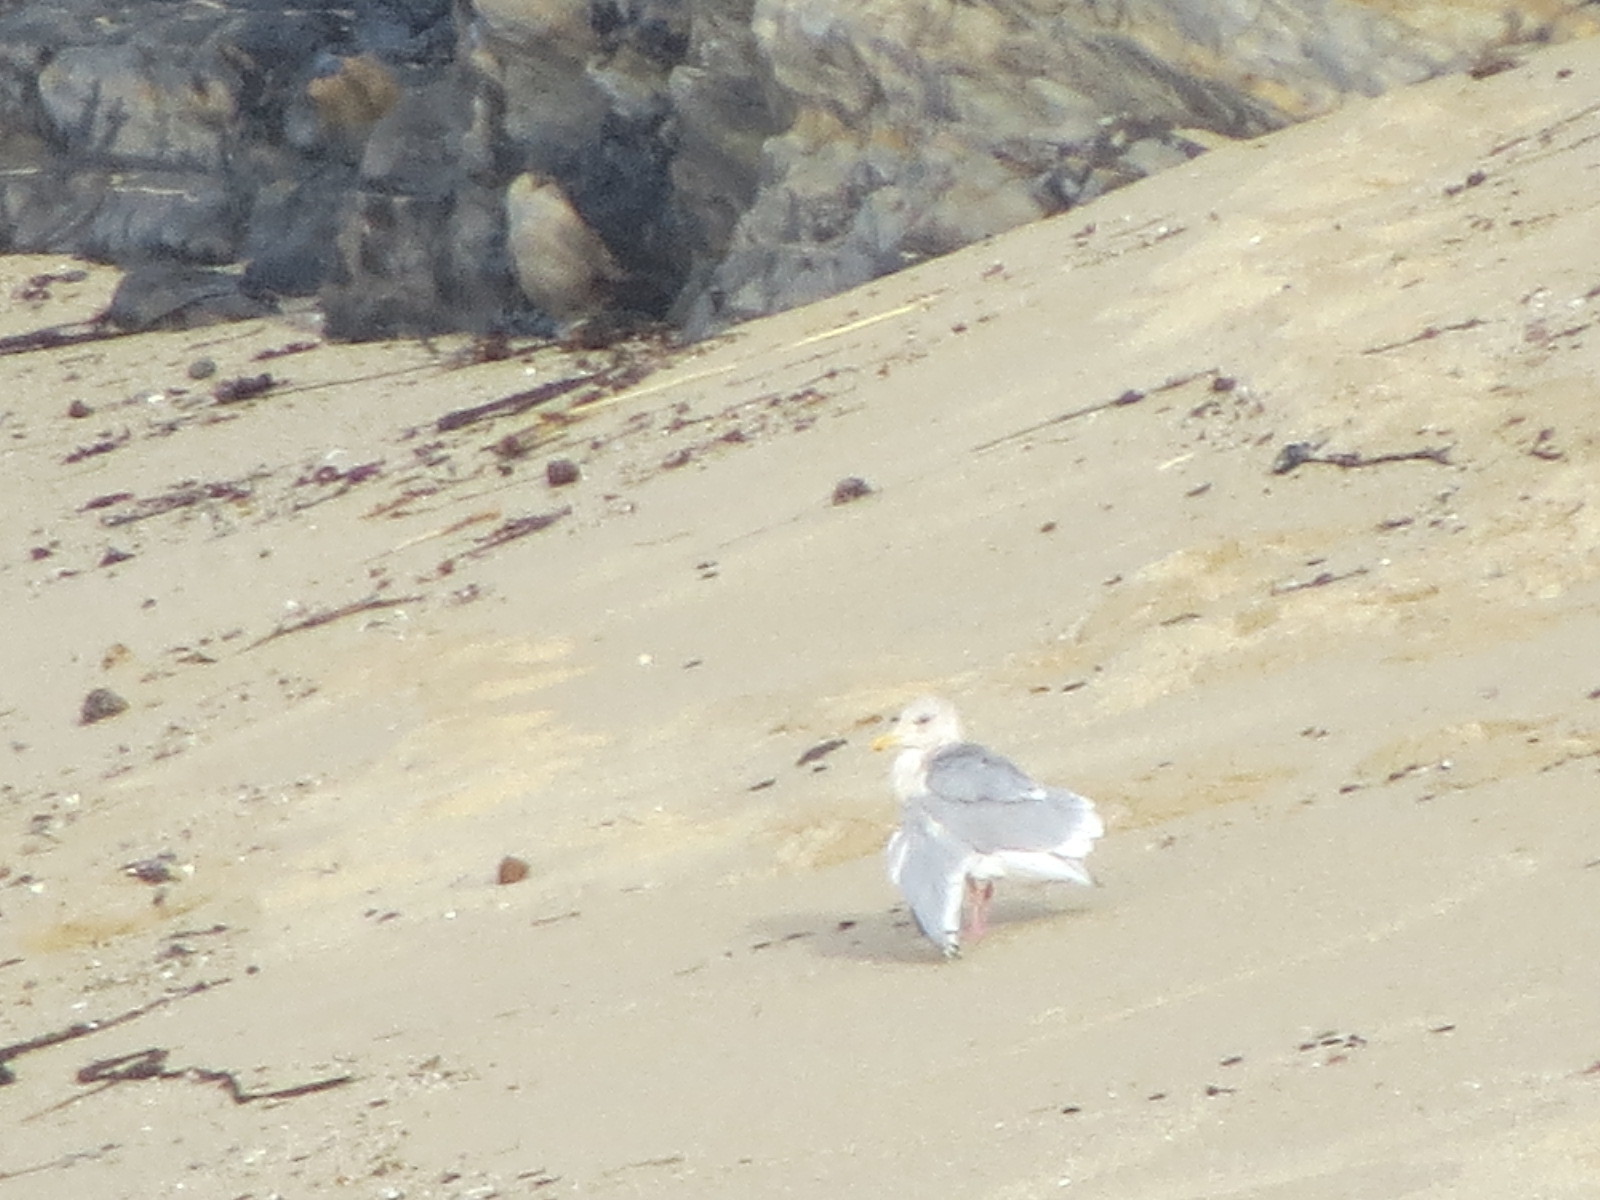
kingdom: Animalia
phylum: Chordata
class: Aves
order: Charadriiformes
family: Laridae
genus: Larus
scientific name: Larus glaucescens
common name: Glaucous-winged gull
